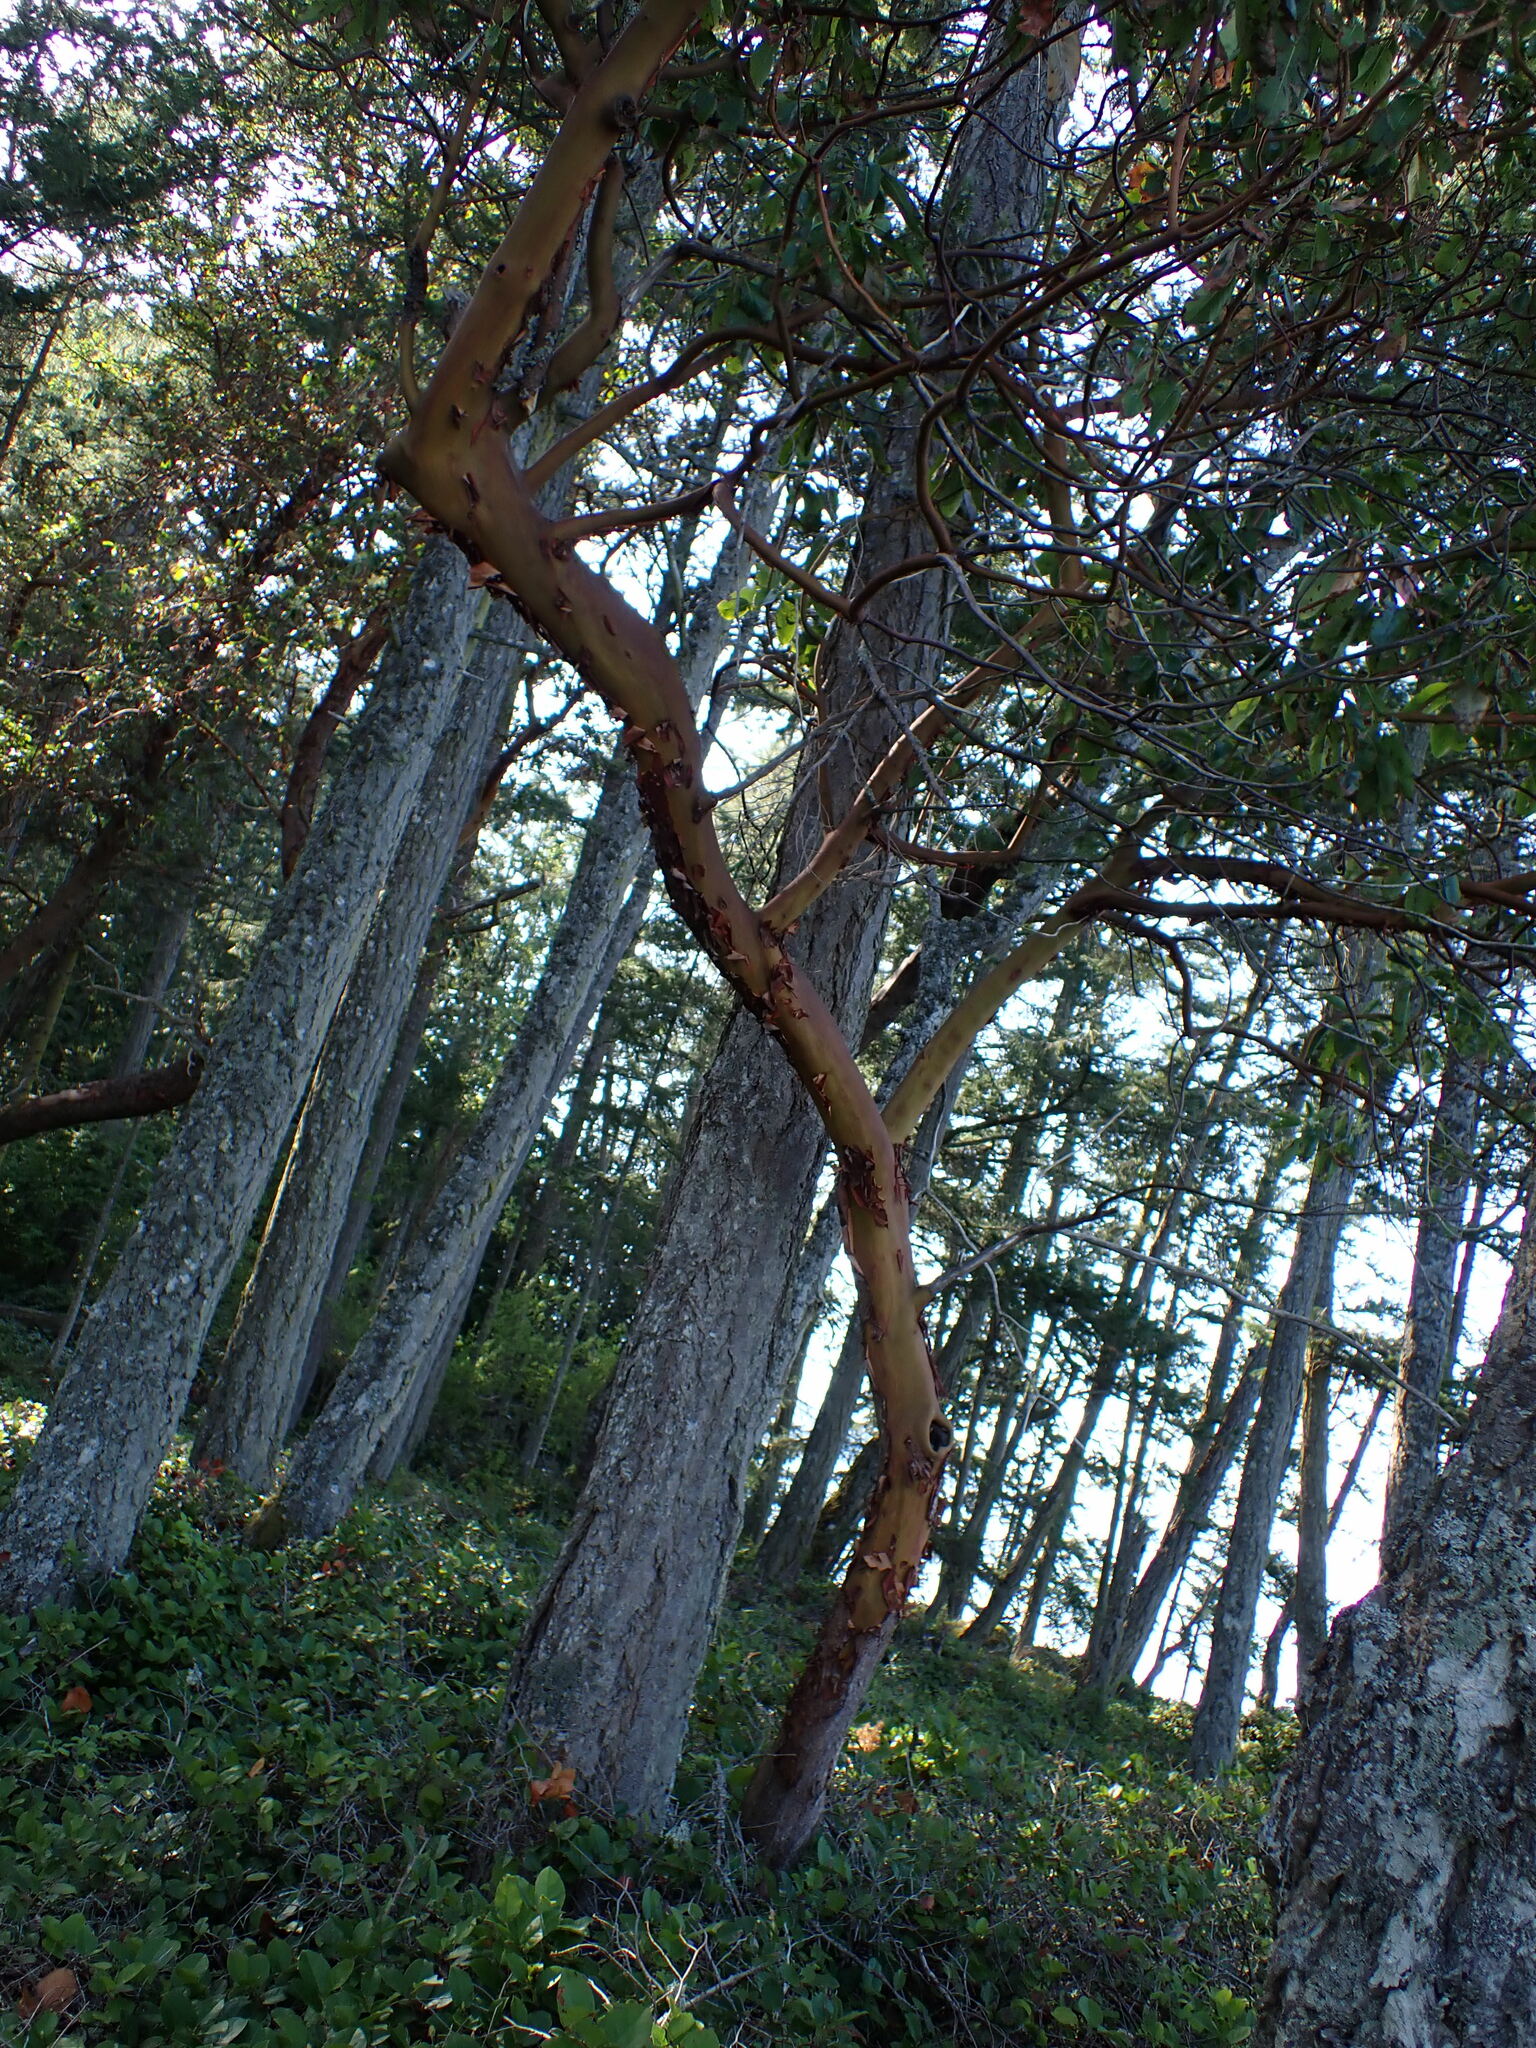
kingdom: Plantae
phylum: Tracheophyta
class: Magnoliopsida
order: Ericales
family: Ericaceae
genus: Arbutus
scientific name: Arbutus menziesii
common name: Pacific madrone
